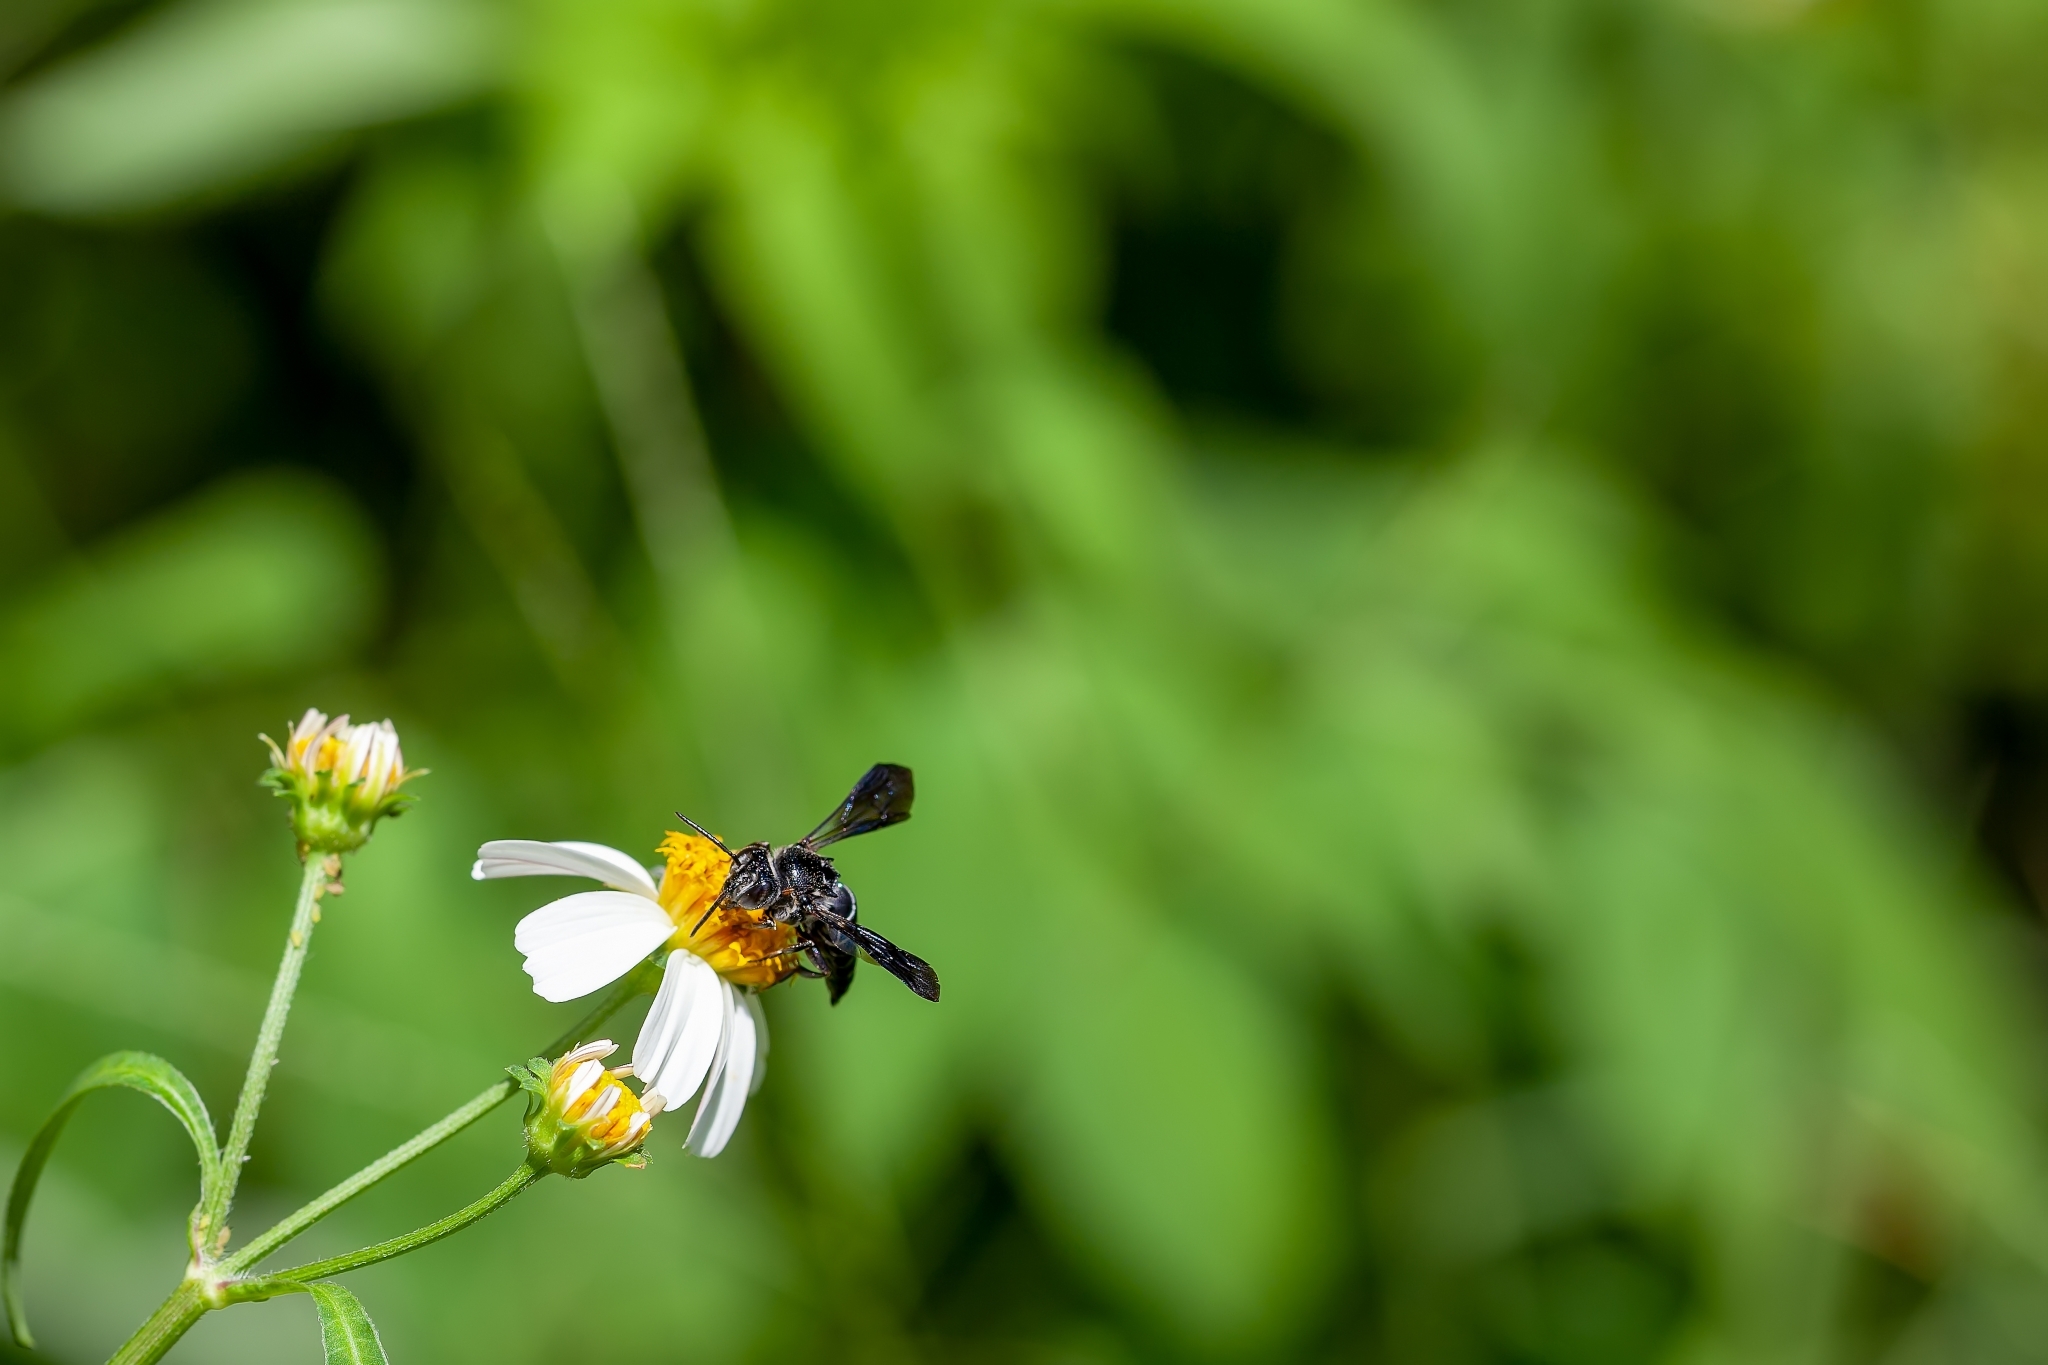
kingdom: Animalia
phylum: Arthropoda
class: Insecta
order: Hymenoptera
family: Megachilidae
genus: Coelioxys
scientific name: Coelioxys dolichos
